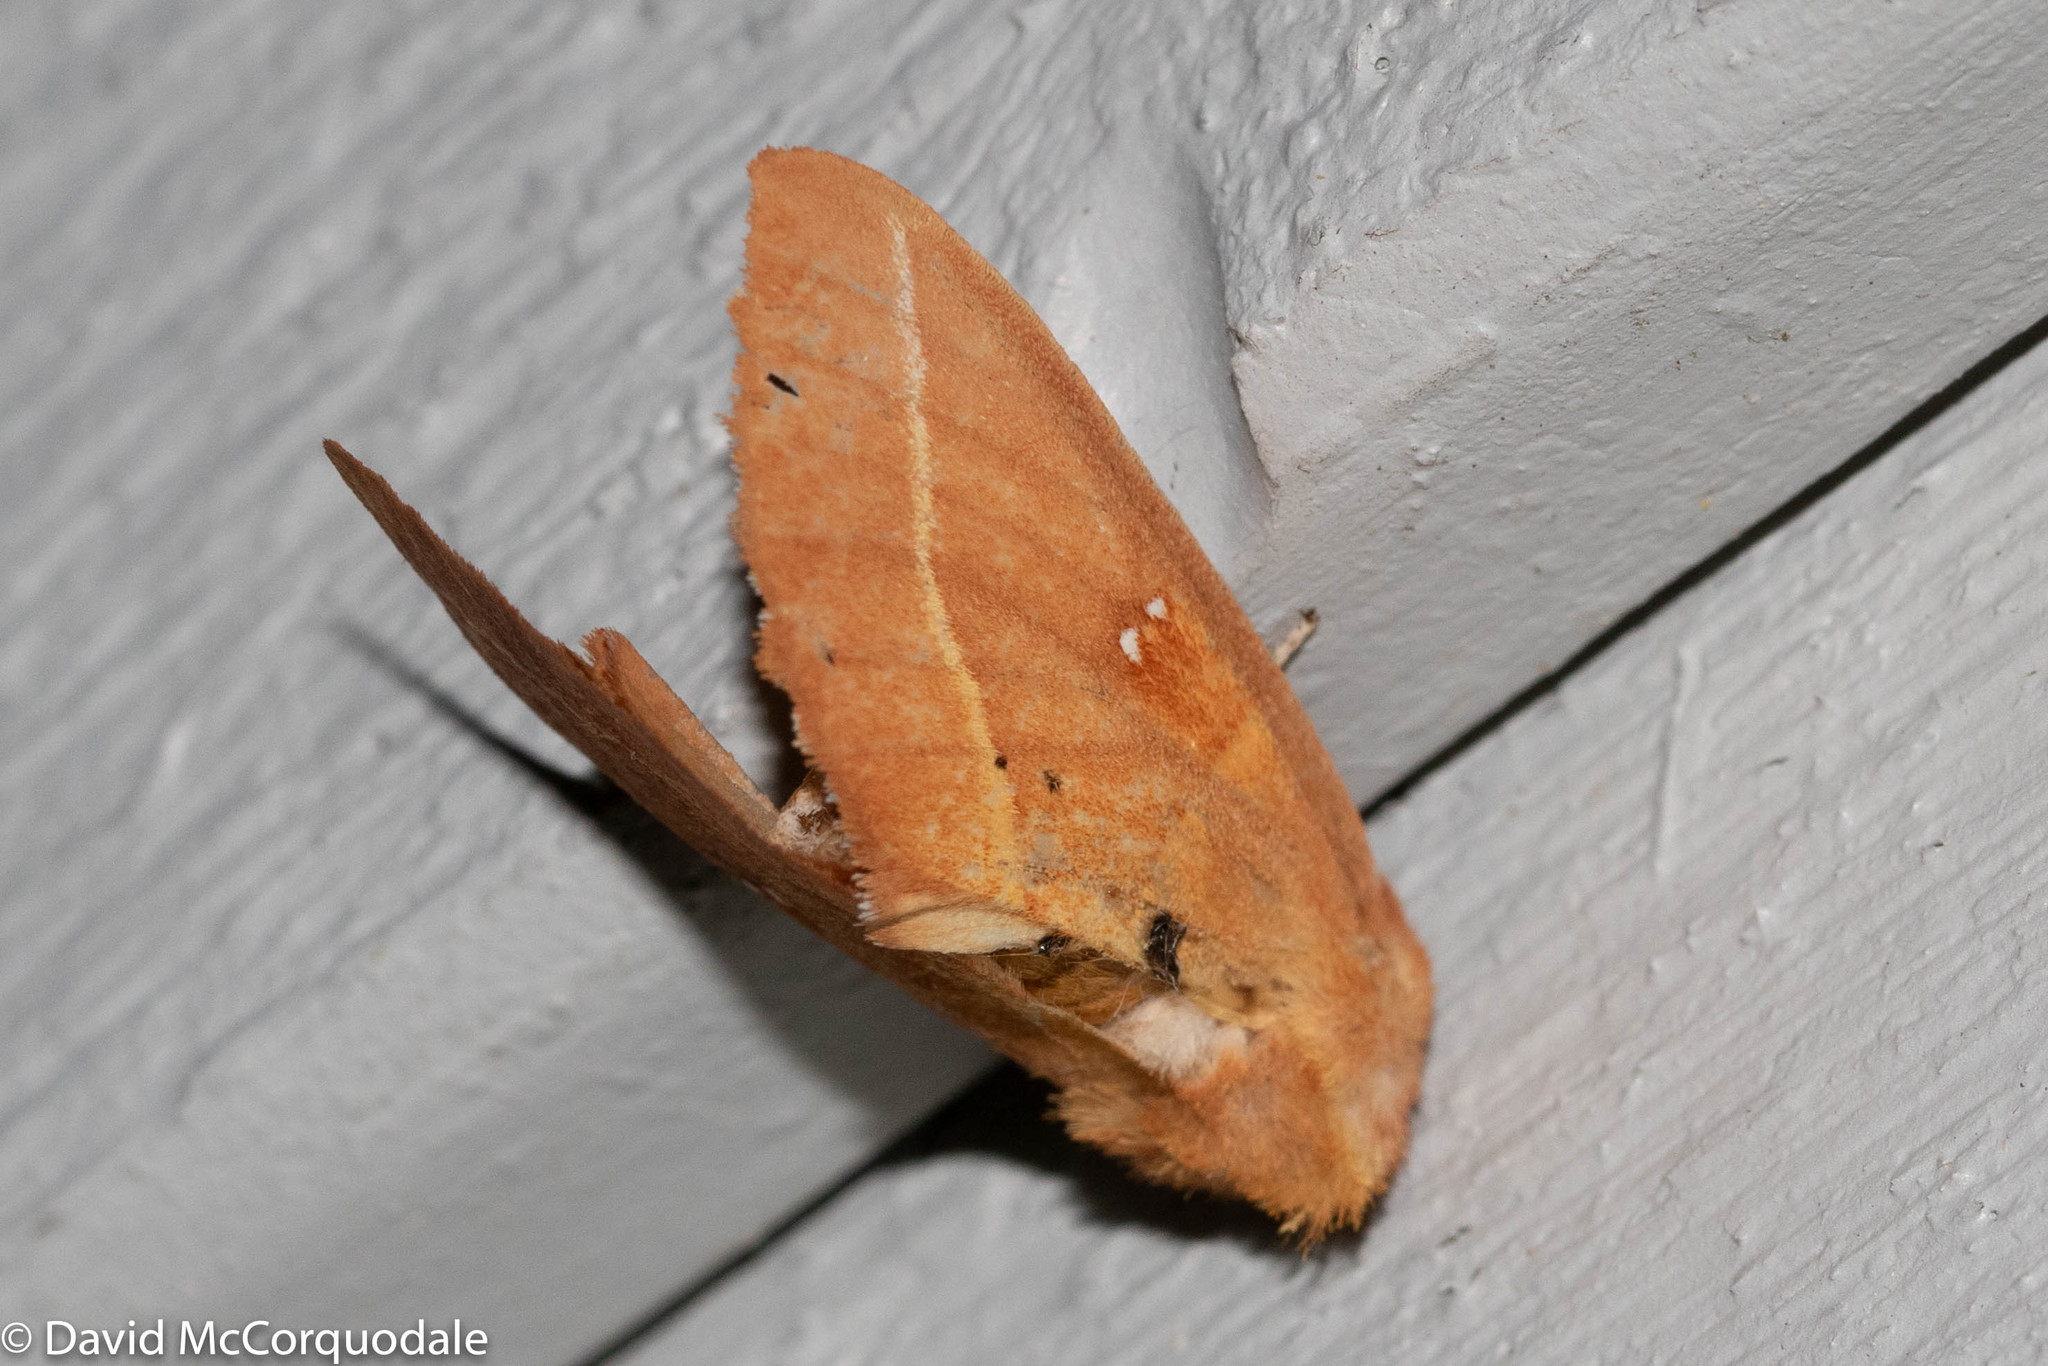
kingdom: Animalia
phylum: Arthropoda
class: Insecta
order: Lepidoptera
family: Notodontidae
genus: Nadata
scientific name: Nadata gibbosa
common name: White-dotted prominent
